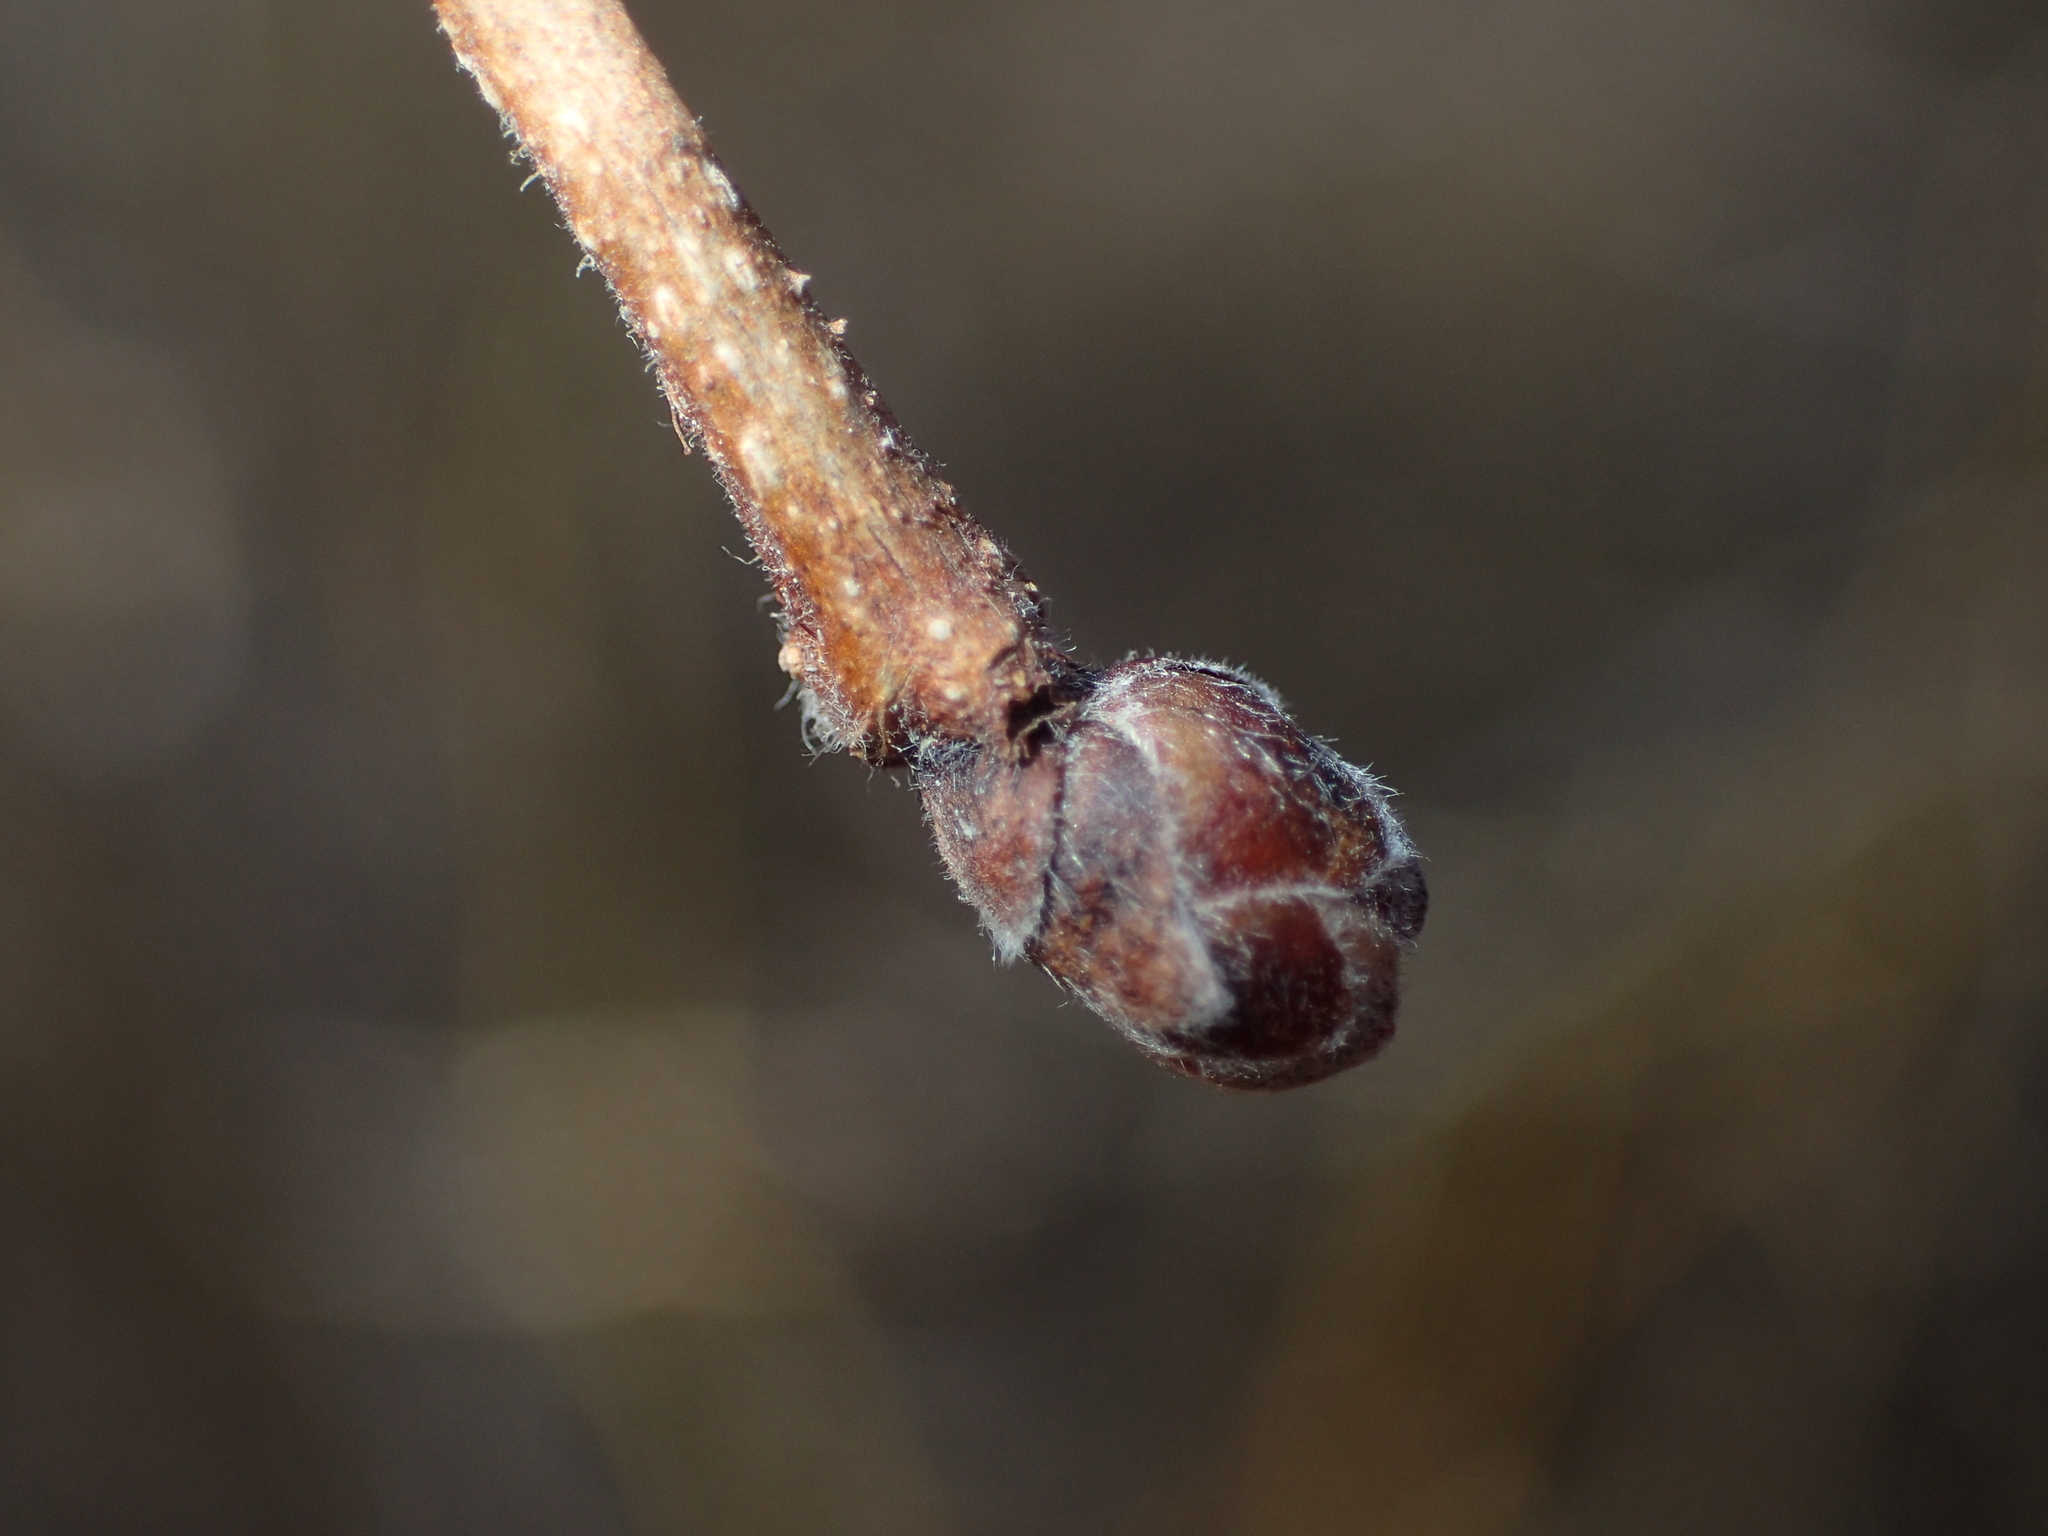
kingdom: Plantae
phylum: Tracheophyta
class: Magnoliopsida
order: Fagales
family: Betulaceae
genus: Corylus
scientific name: Corylus americana
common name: American hazel
